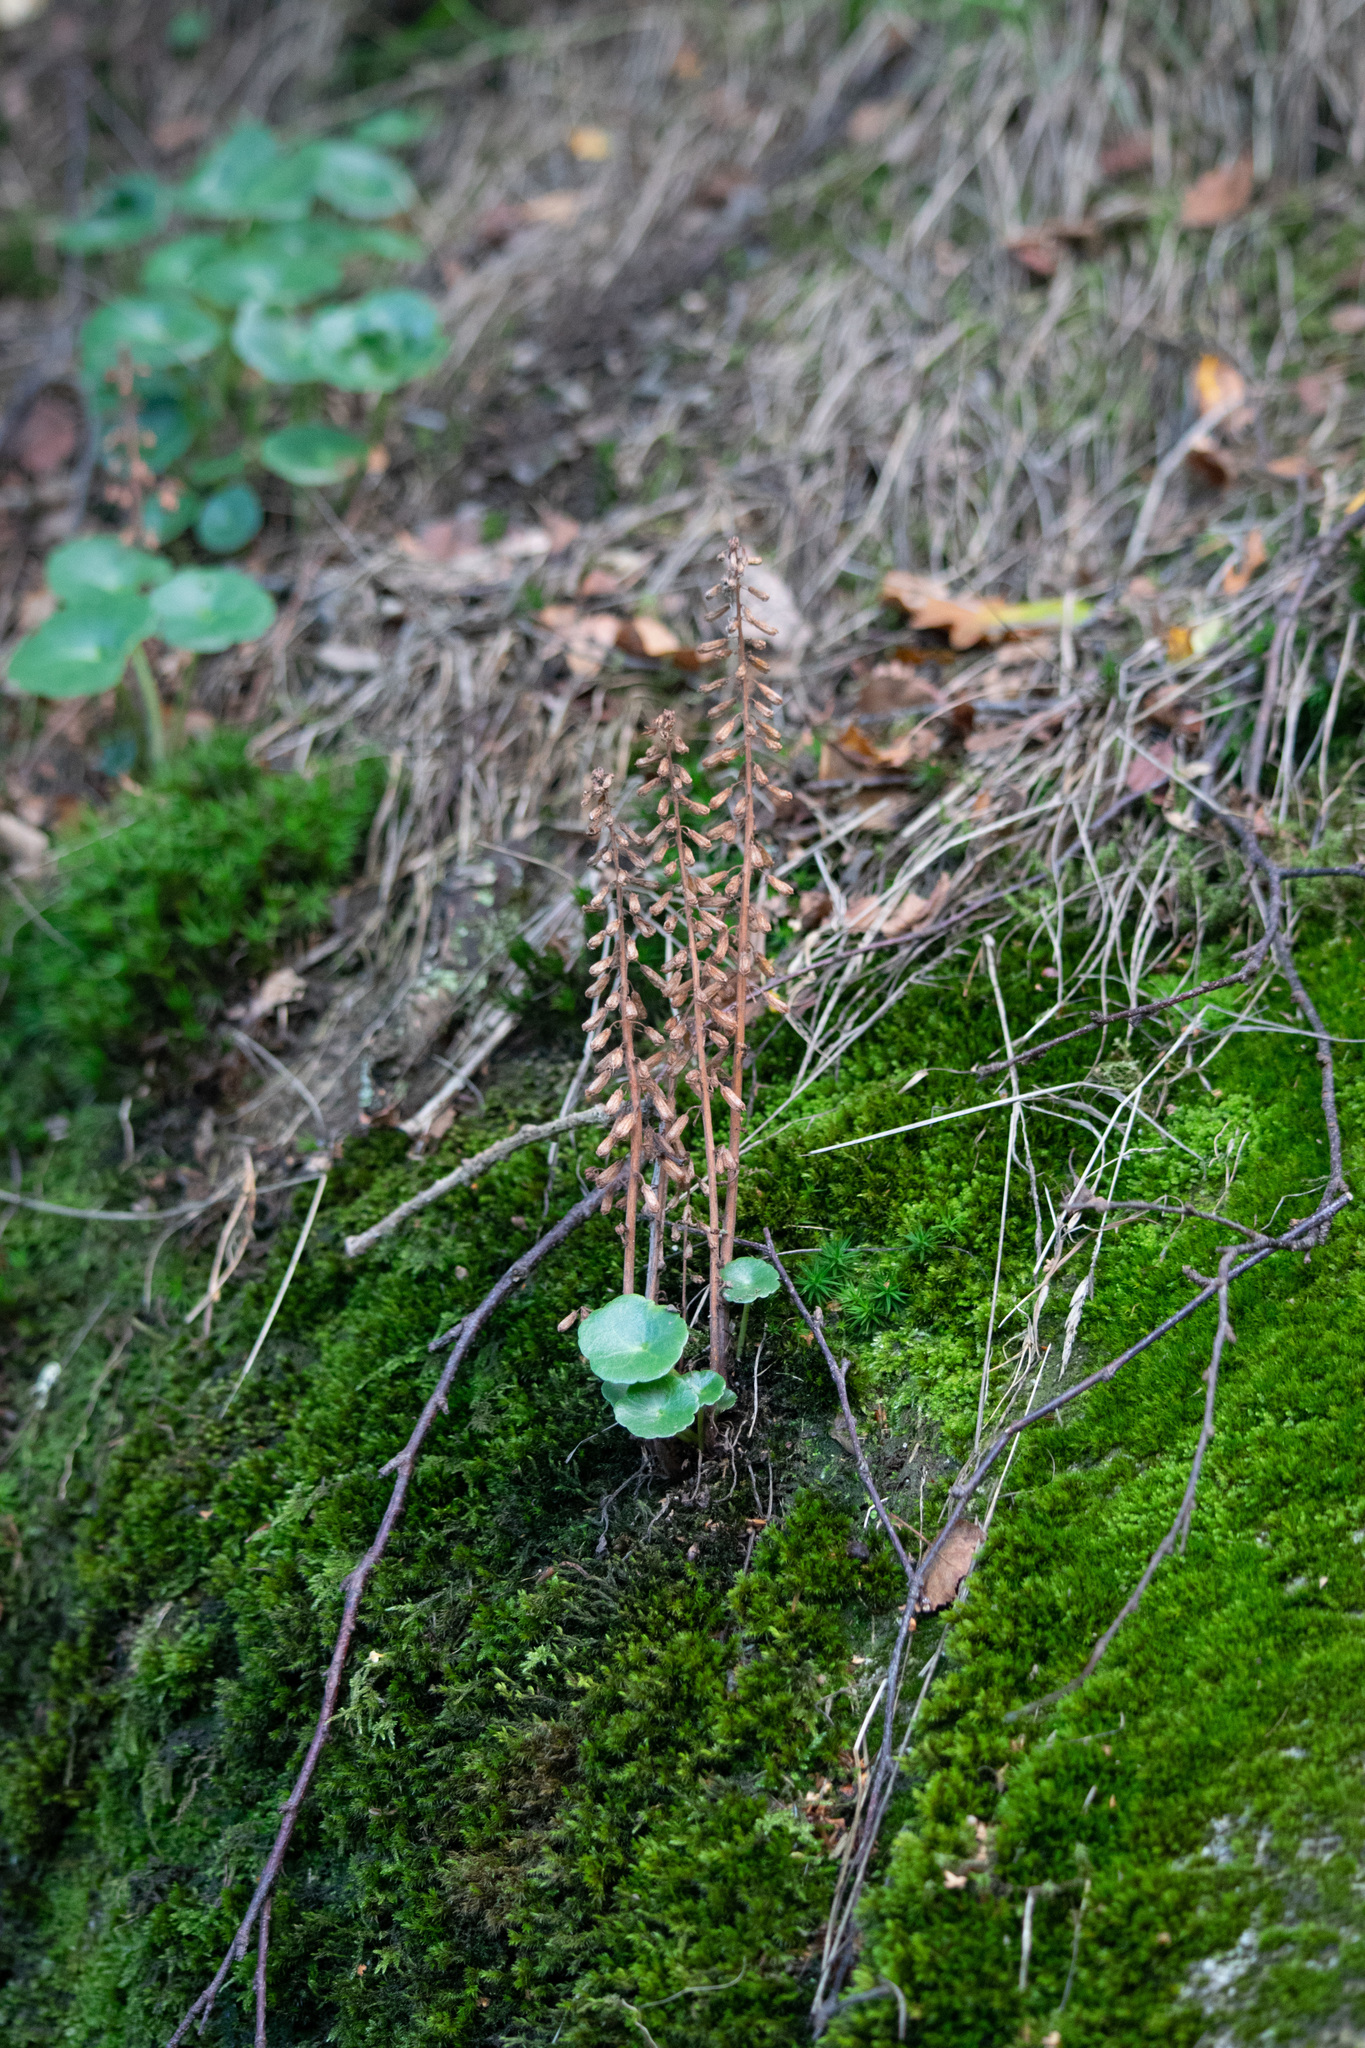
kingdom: Plantae
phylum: Tracheophyta
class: Magnoliopsida
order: Saxifragales
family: Crassulaceae
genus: Umbilicus
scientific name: Umbilicus rupestris
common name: Navelwort
